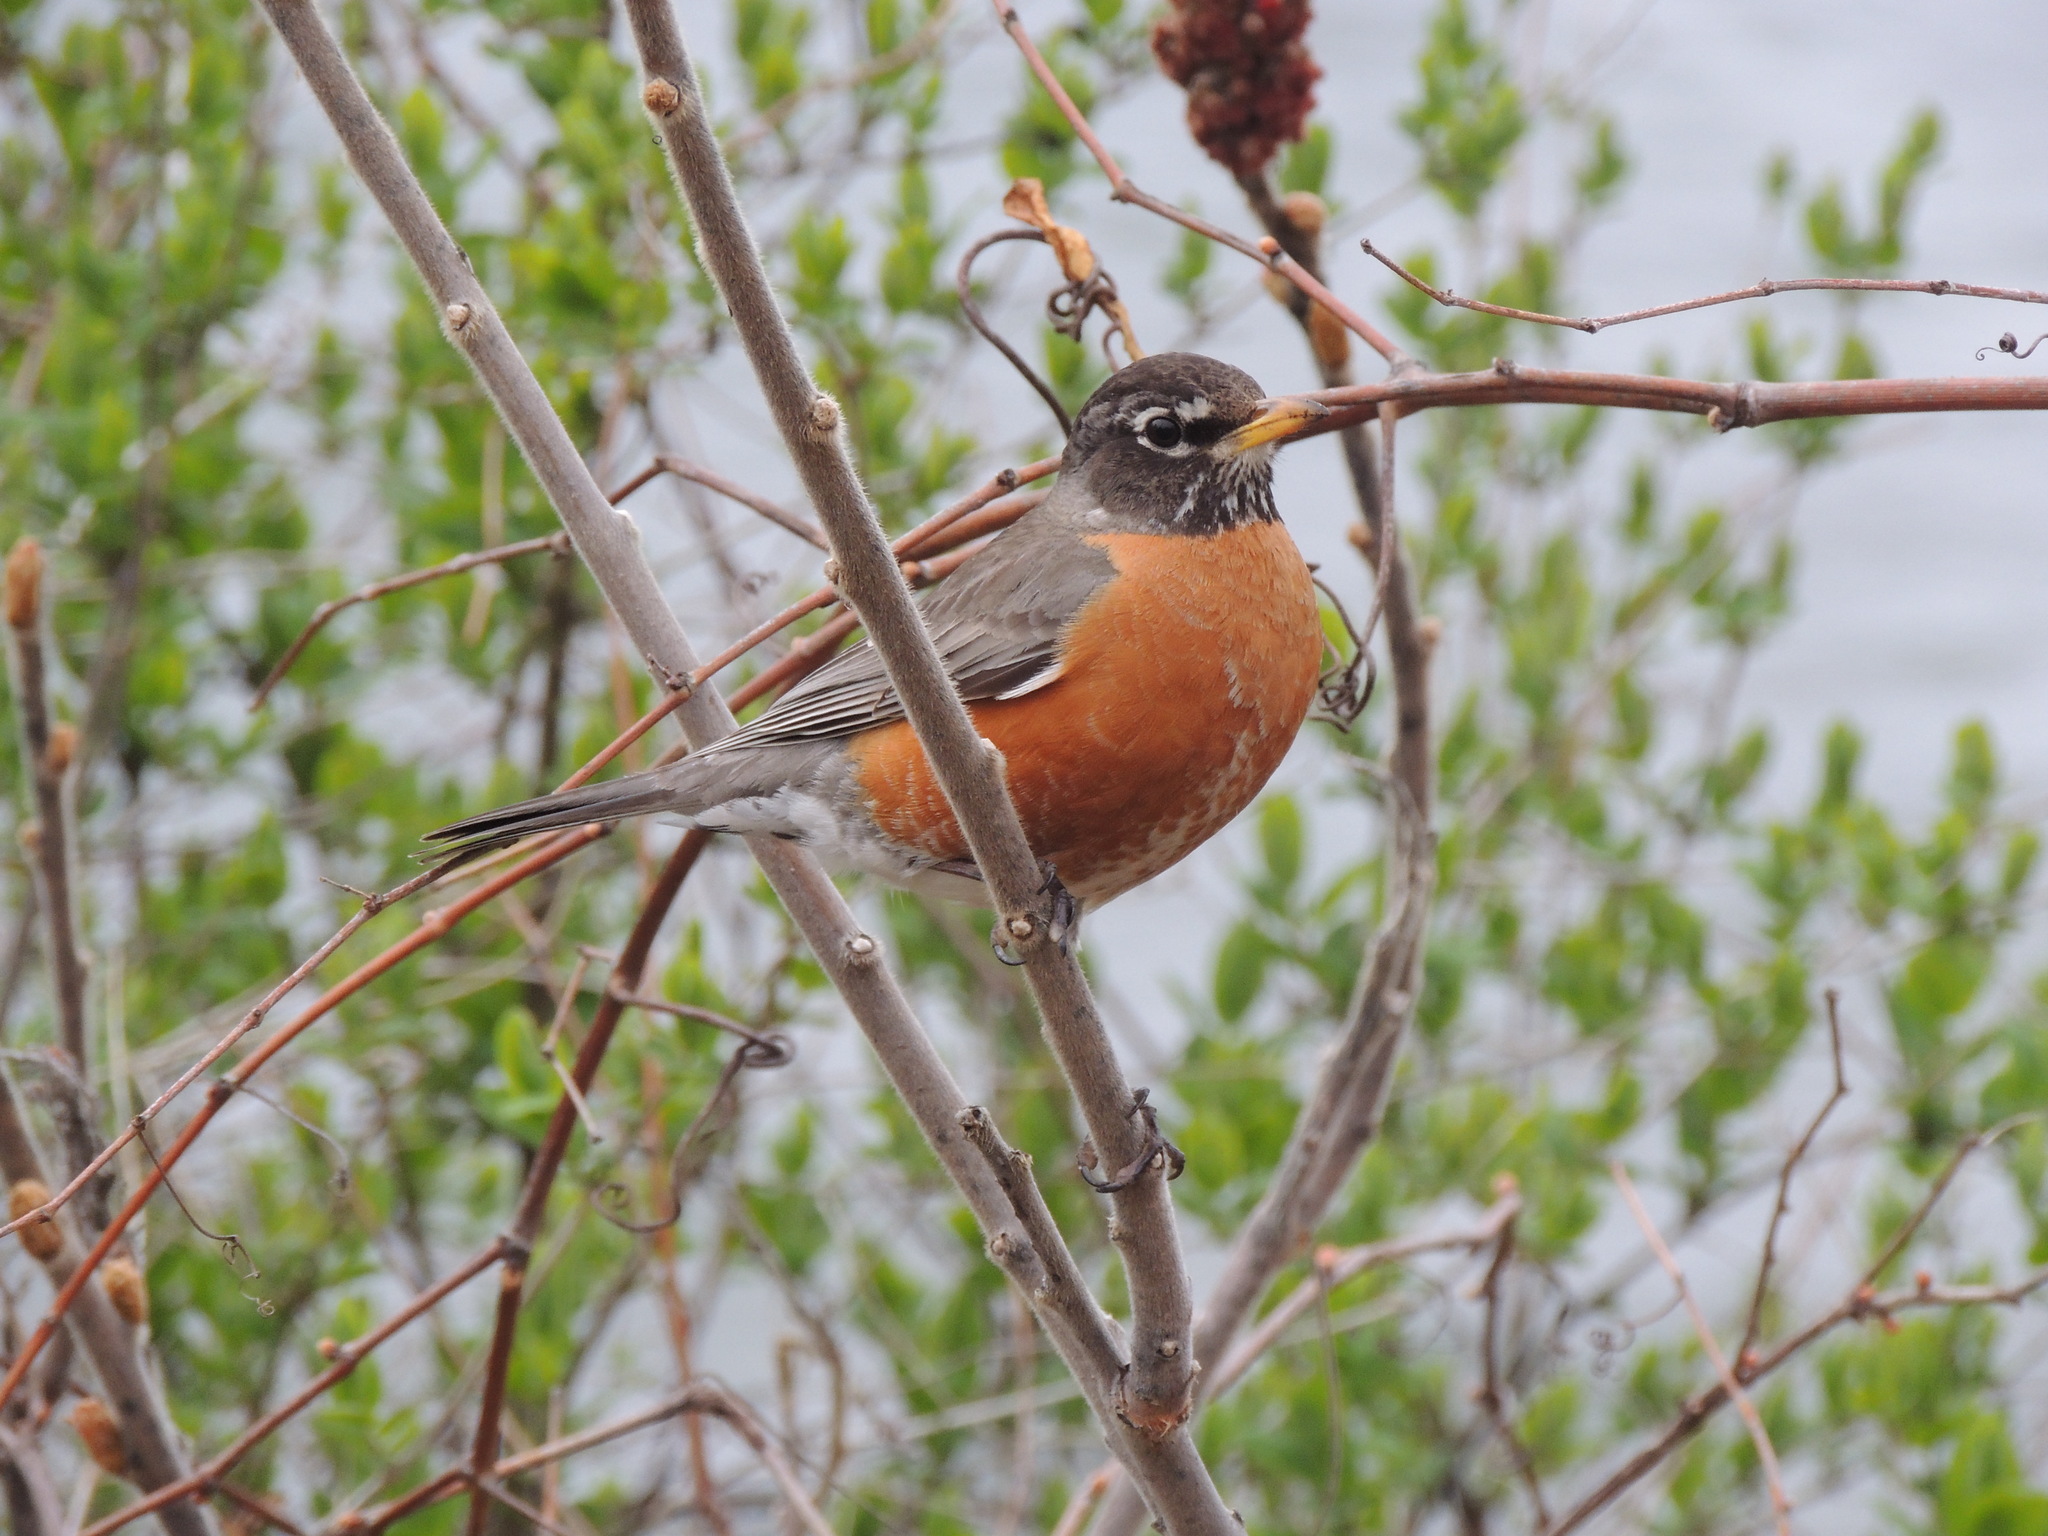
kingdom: Animalia
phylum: Chordata
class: Aves
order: Passeriformes
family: Turdidae
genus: Turdus
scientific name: Turdus migratorius
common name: American robin
